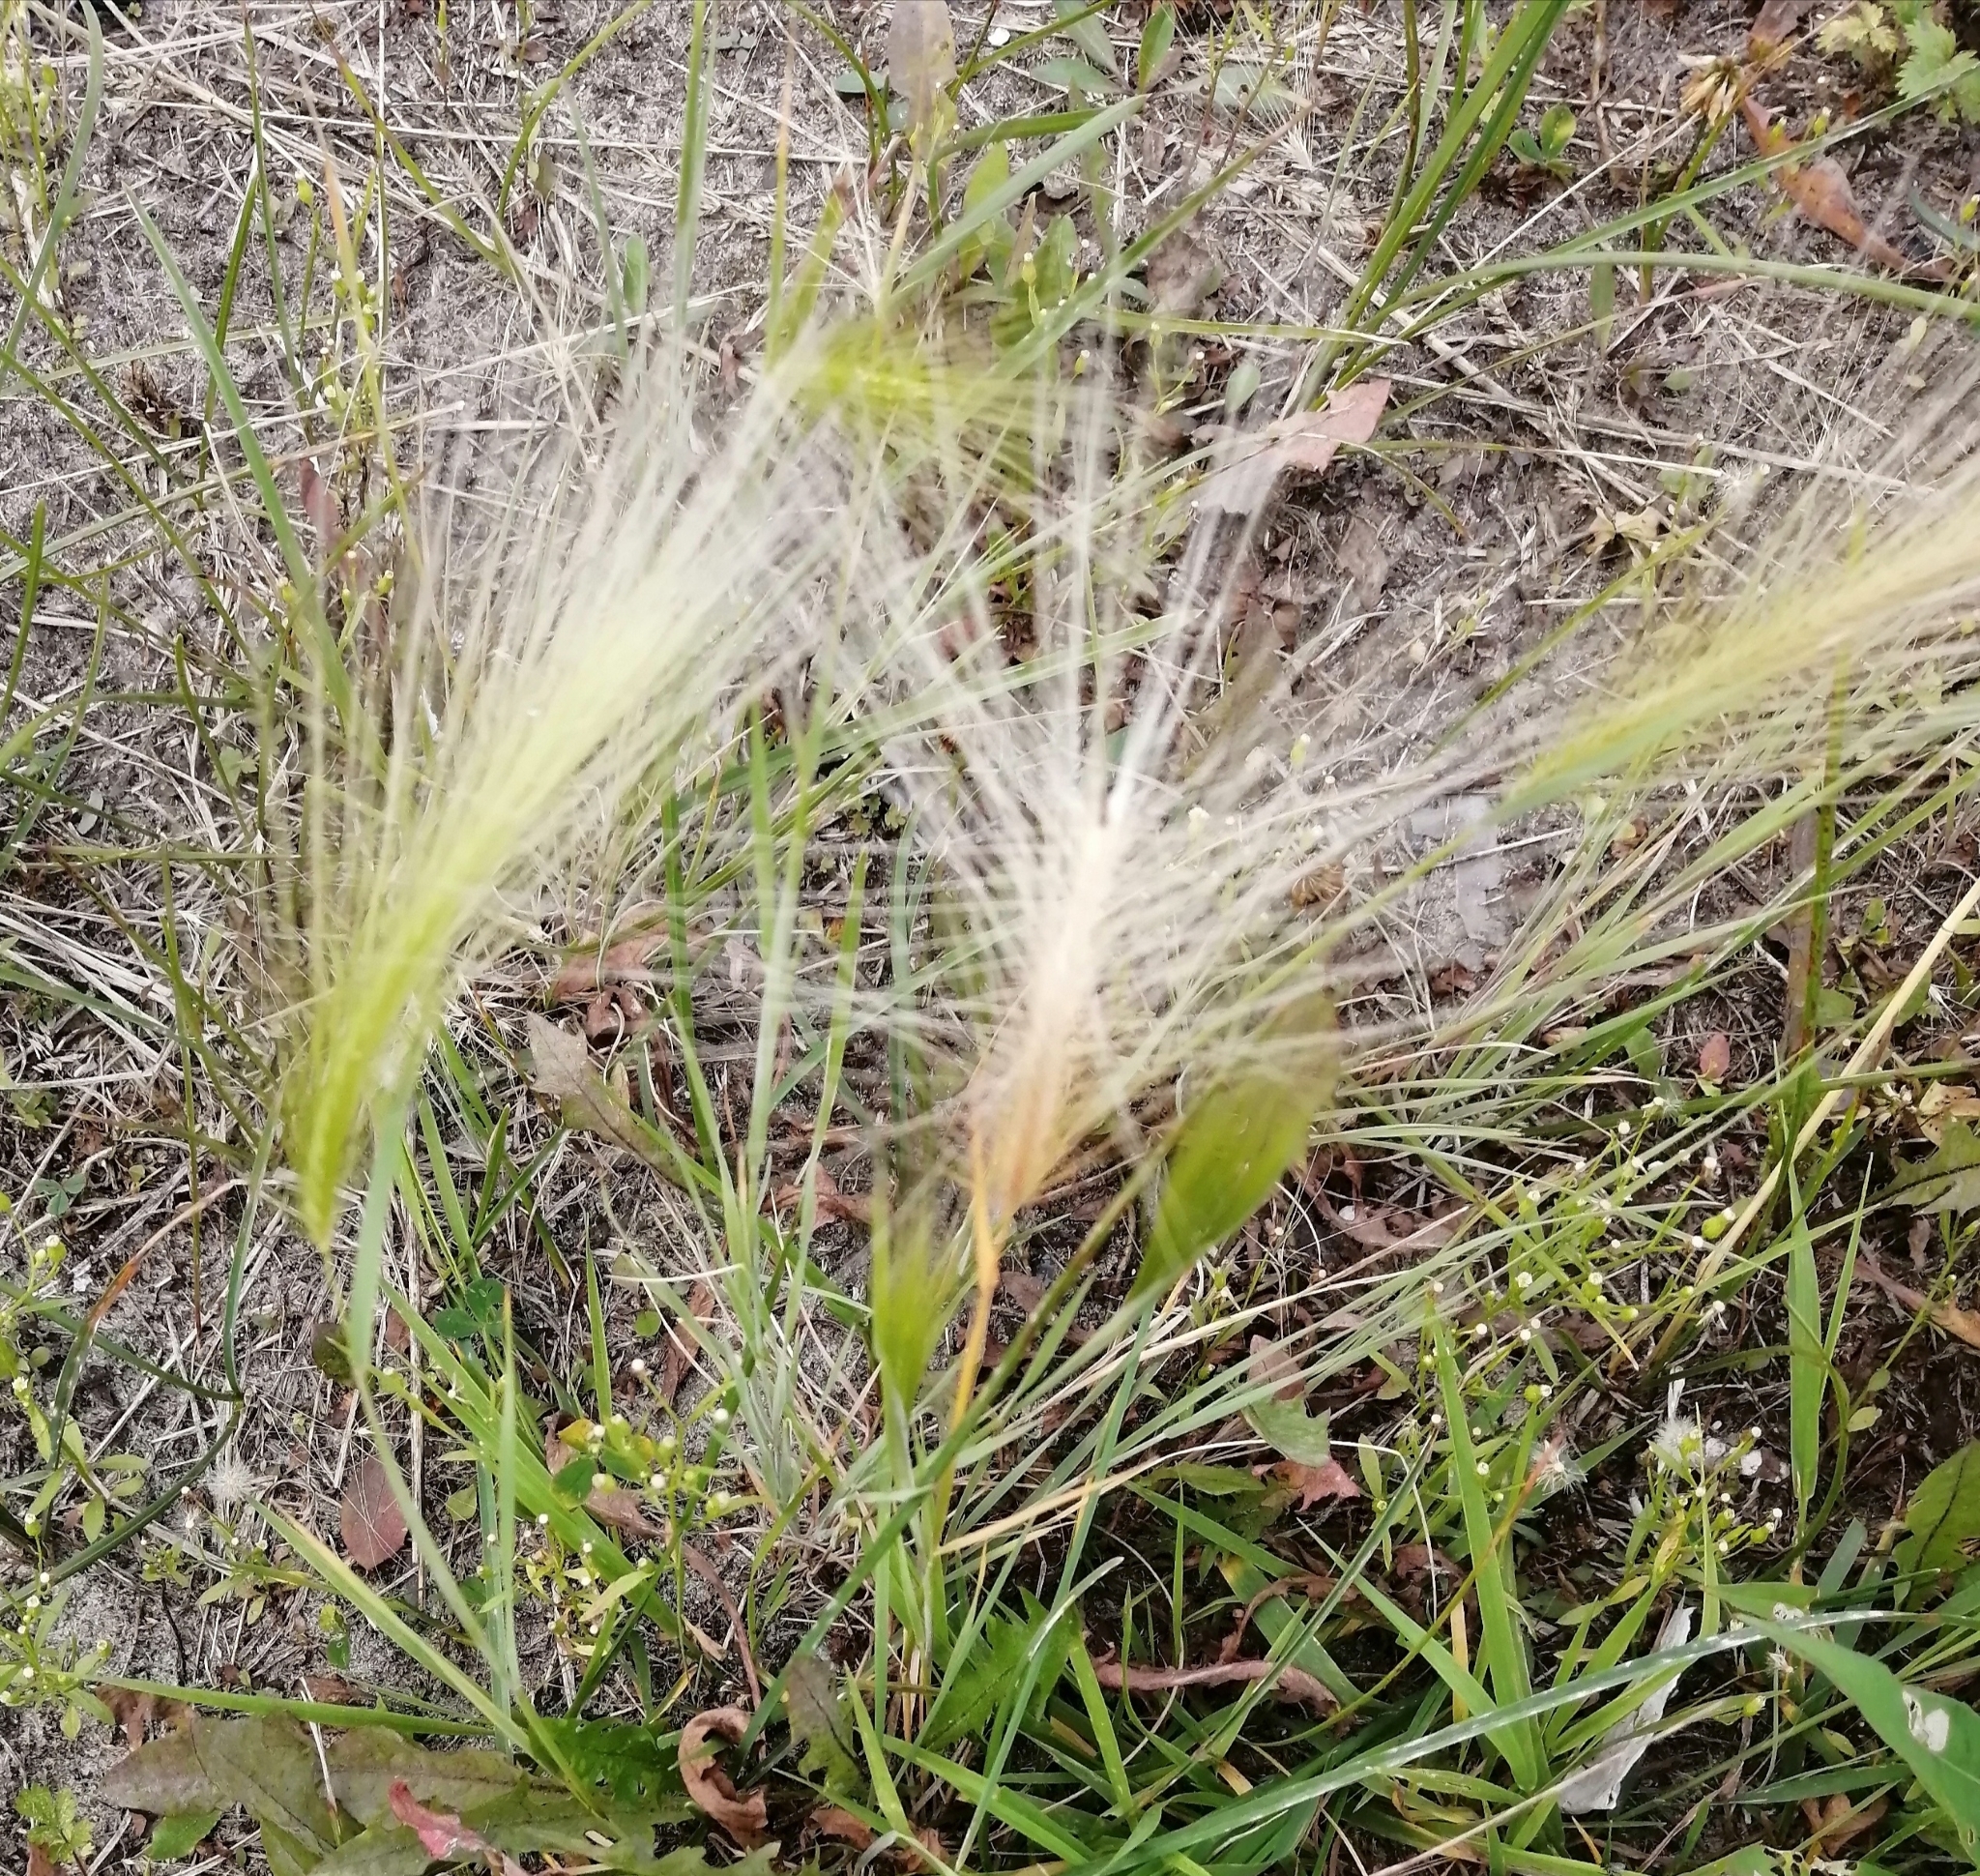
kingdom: Plantae
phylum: Tracheophyta
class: Liliopsida
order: Poales
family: Poaceae
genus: Hordeum
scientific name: Hordeum jubatum
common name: Foxtail barley
